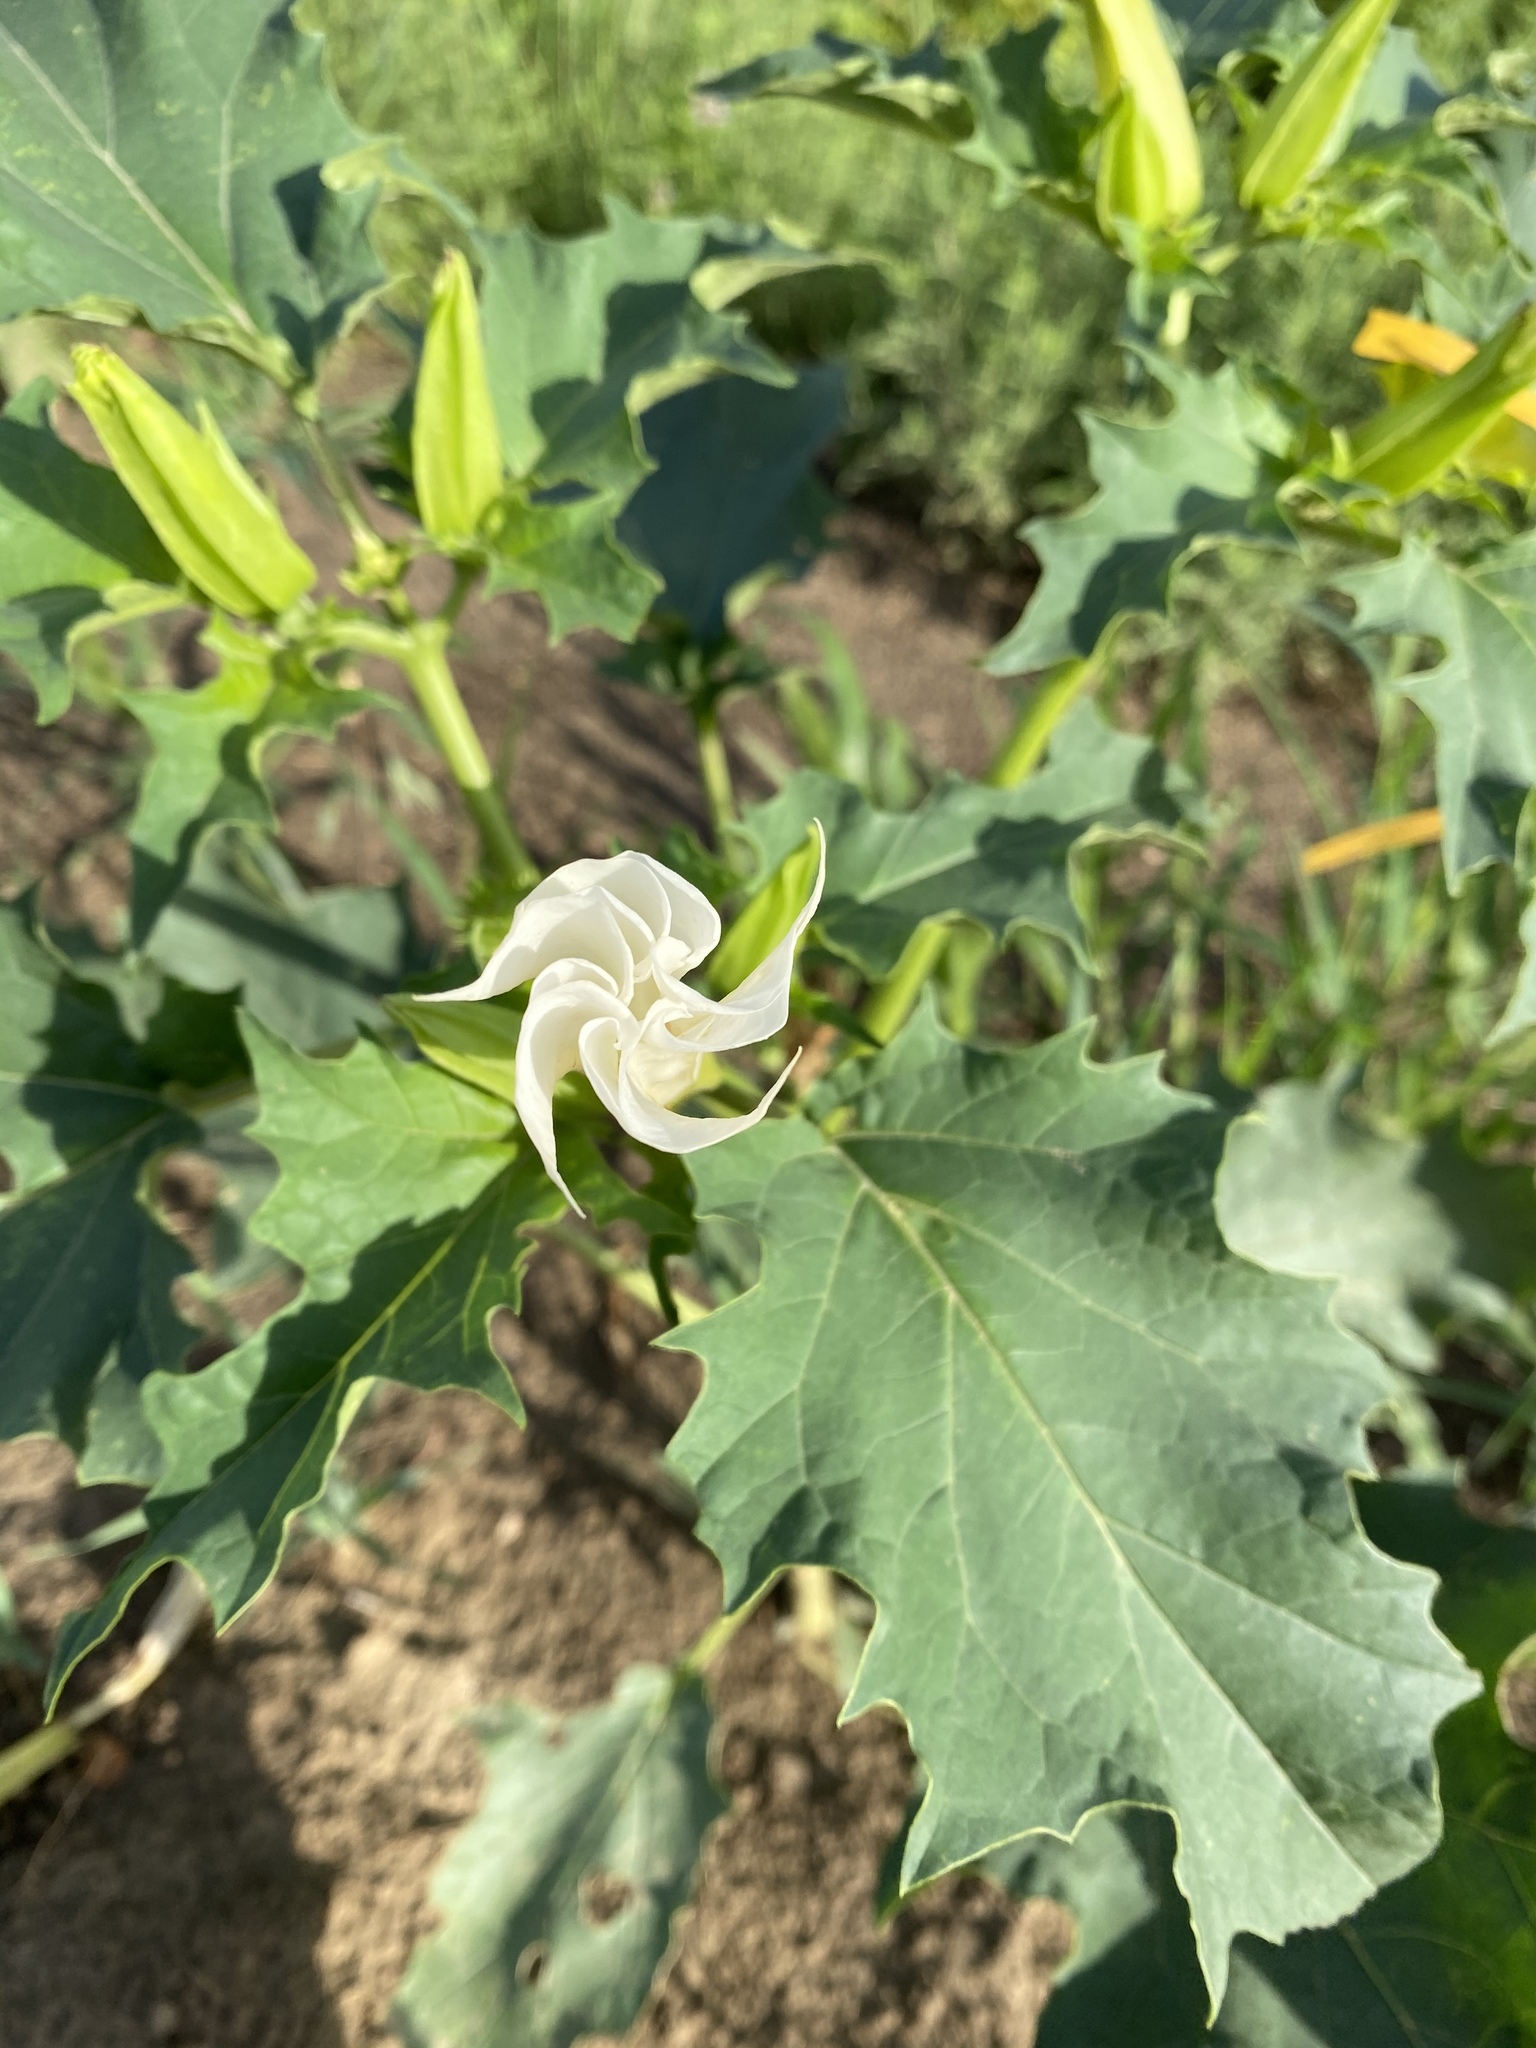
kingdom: Plantae
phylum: Tracheophyta
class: Magnoliopsida
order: Solanales
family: Solanaceae
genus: Datura
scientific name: Datura stramonium
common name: Thorn-apple
